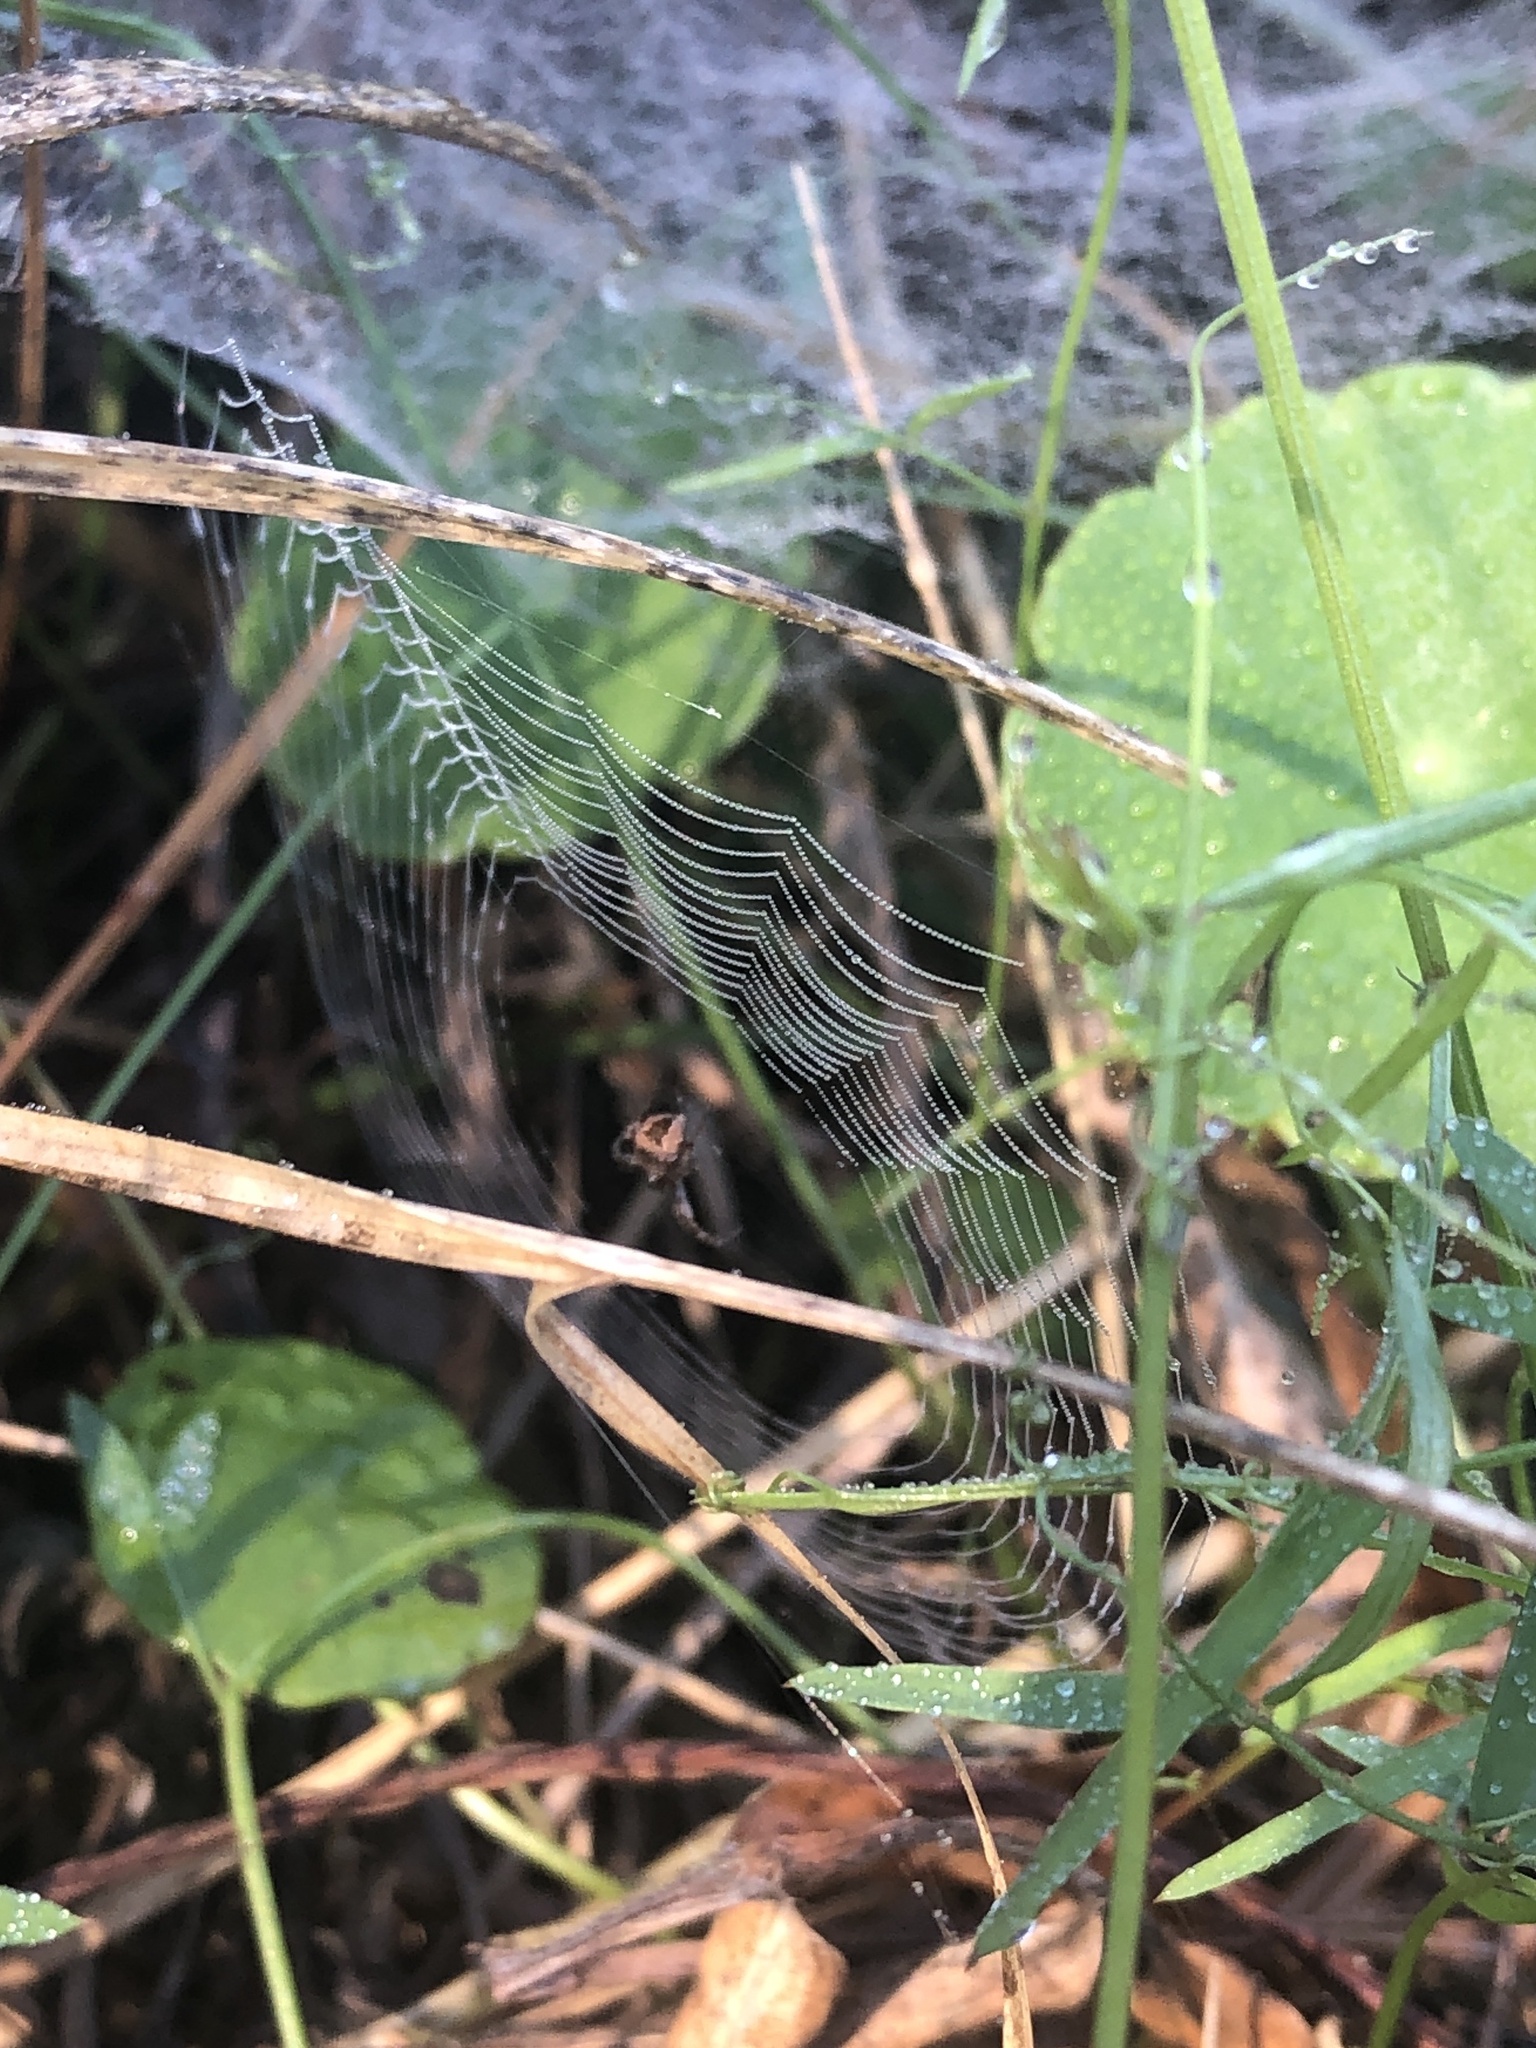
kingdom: Animalia
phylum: Arthropoda
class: Arachnida
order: Araneae
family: Araneidae
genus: Gea
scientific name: Gea heptagon
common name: Orb weavers
